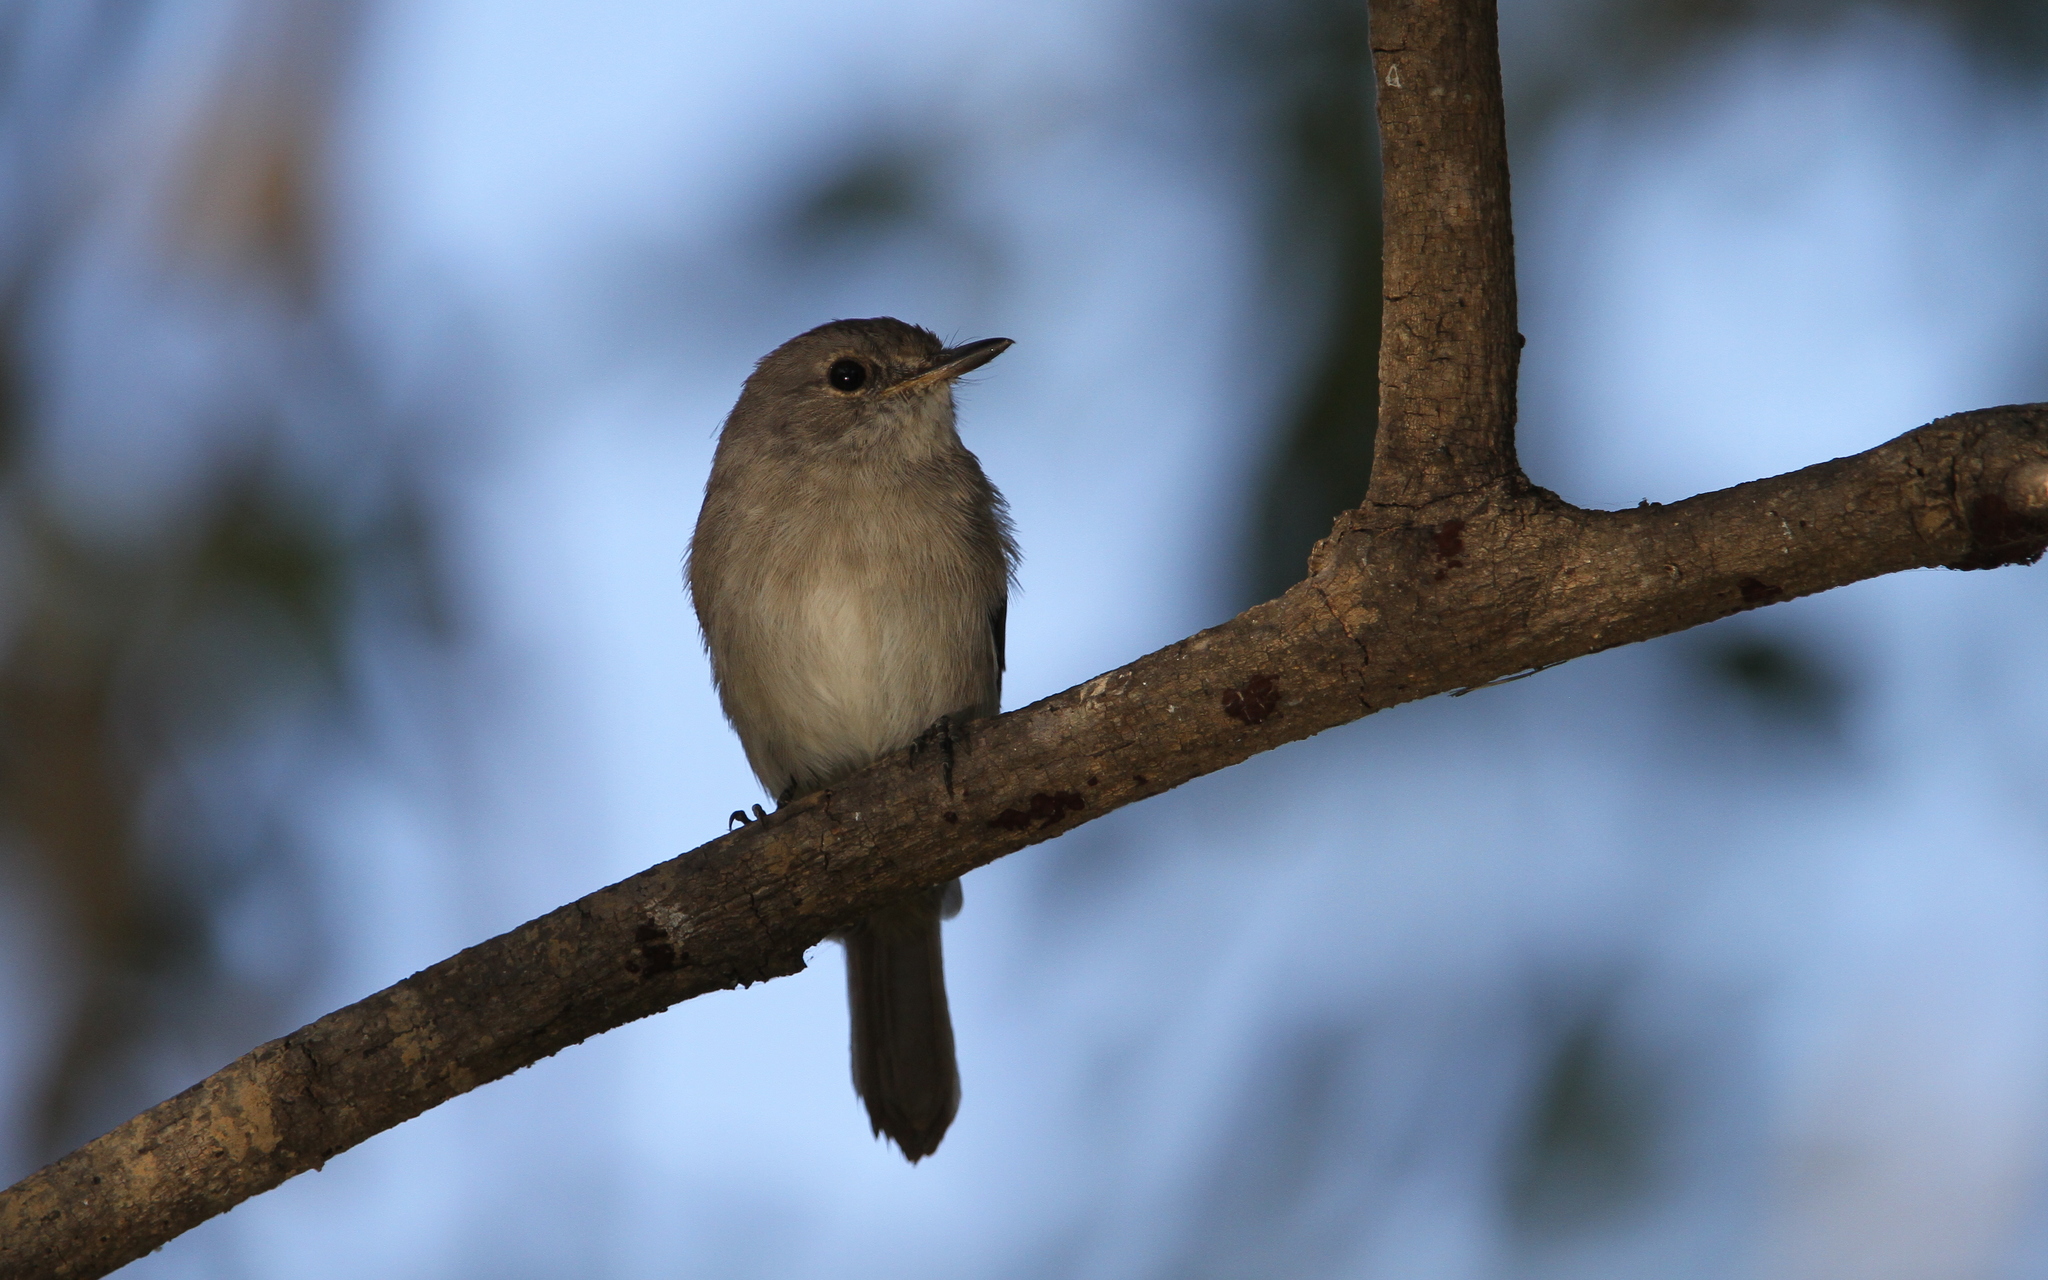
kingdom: Animalia
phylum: Chordata
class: Aves
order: Passeriformes
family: Muscicapidae
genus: Muscicapa
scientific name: Muscicapa aquatica
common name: Swamp flycatcher
